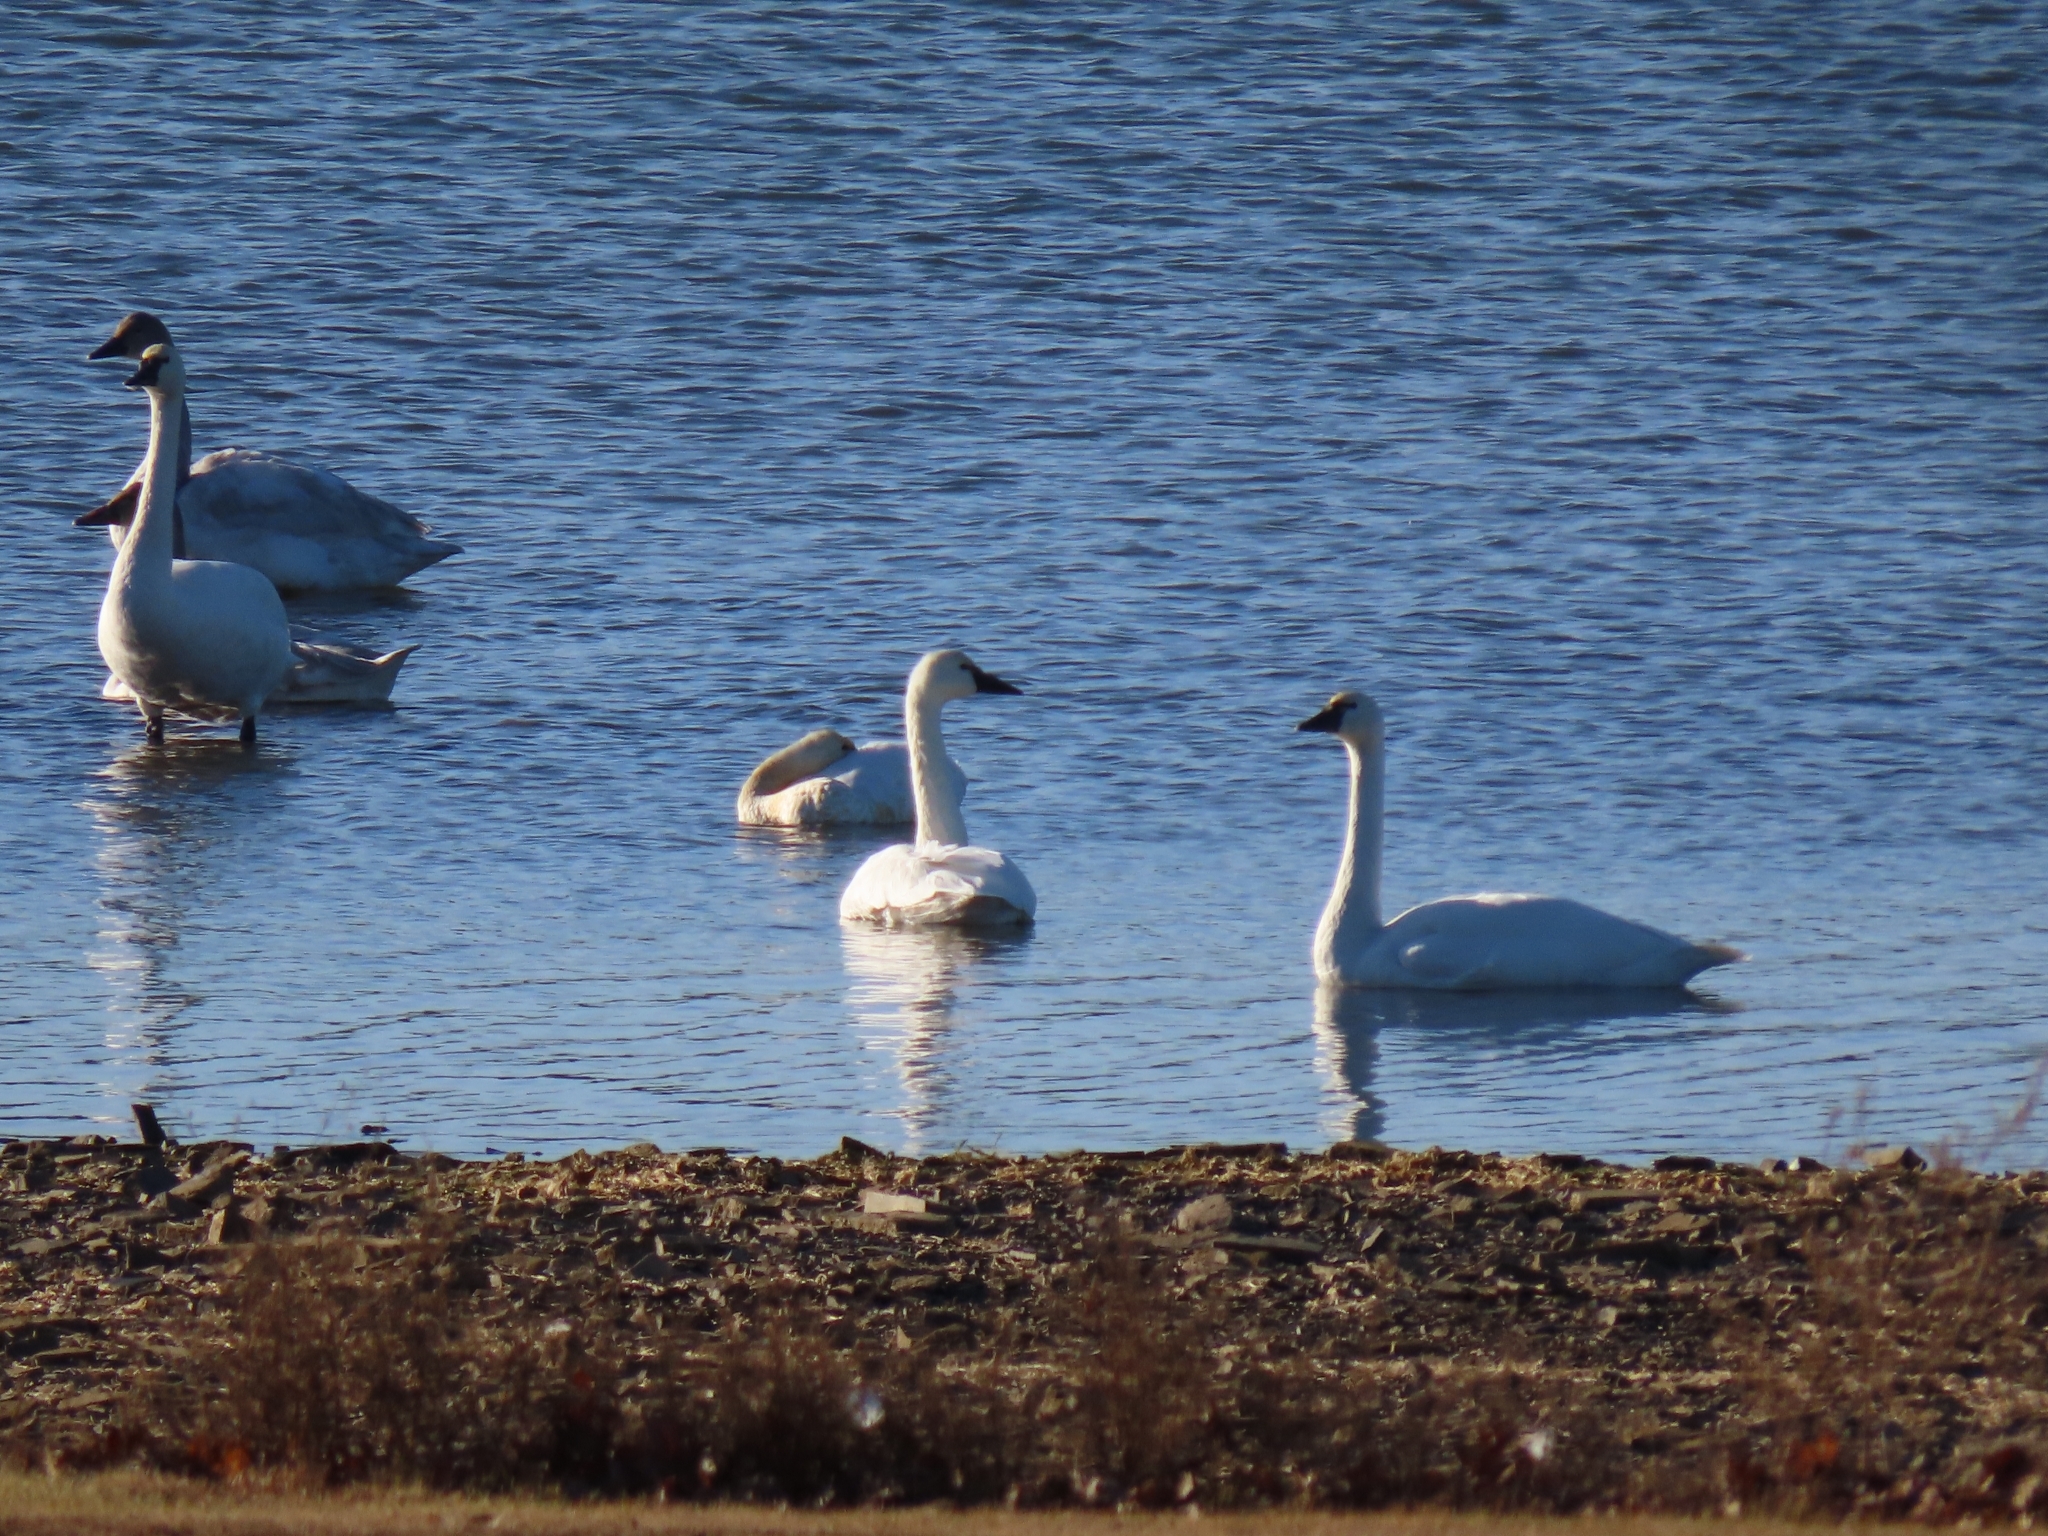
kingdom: Animalia
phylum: Chordata
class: Aves
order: Anseriformes
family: Anatidae
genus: Cygnus
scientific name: Cygnus columbianus
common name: Tundra swan
